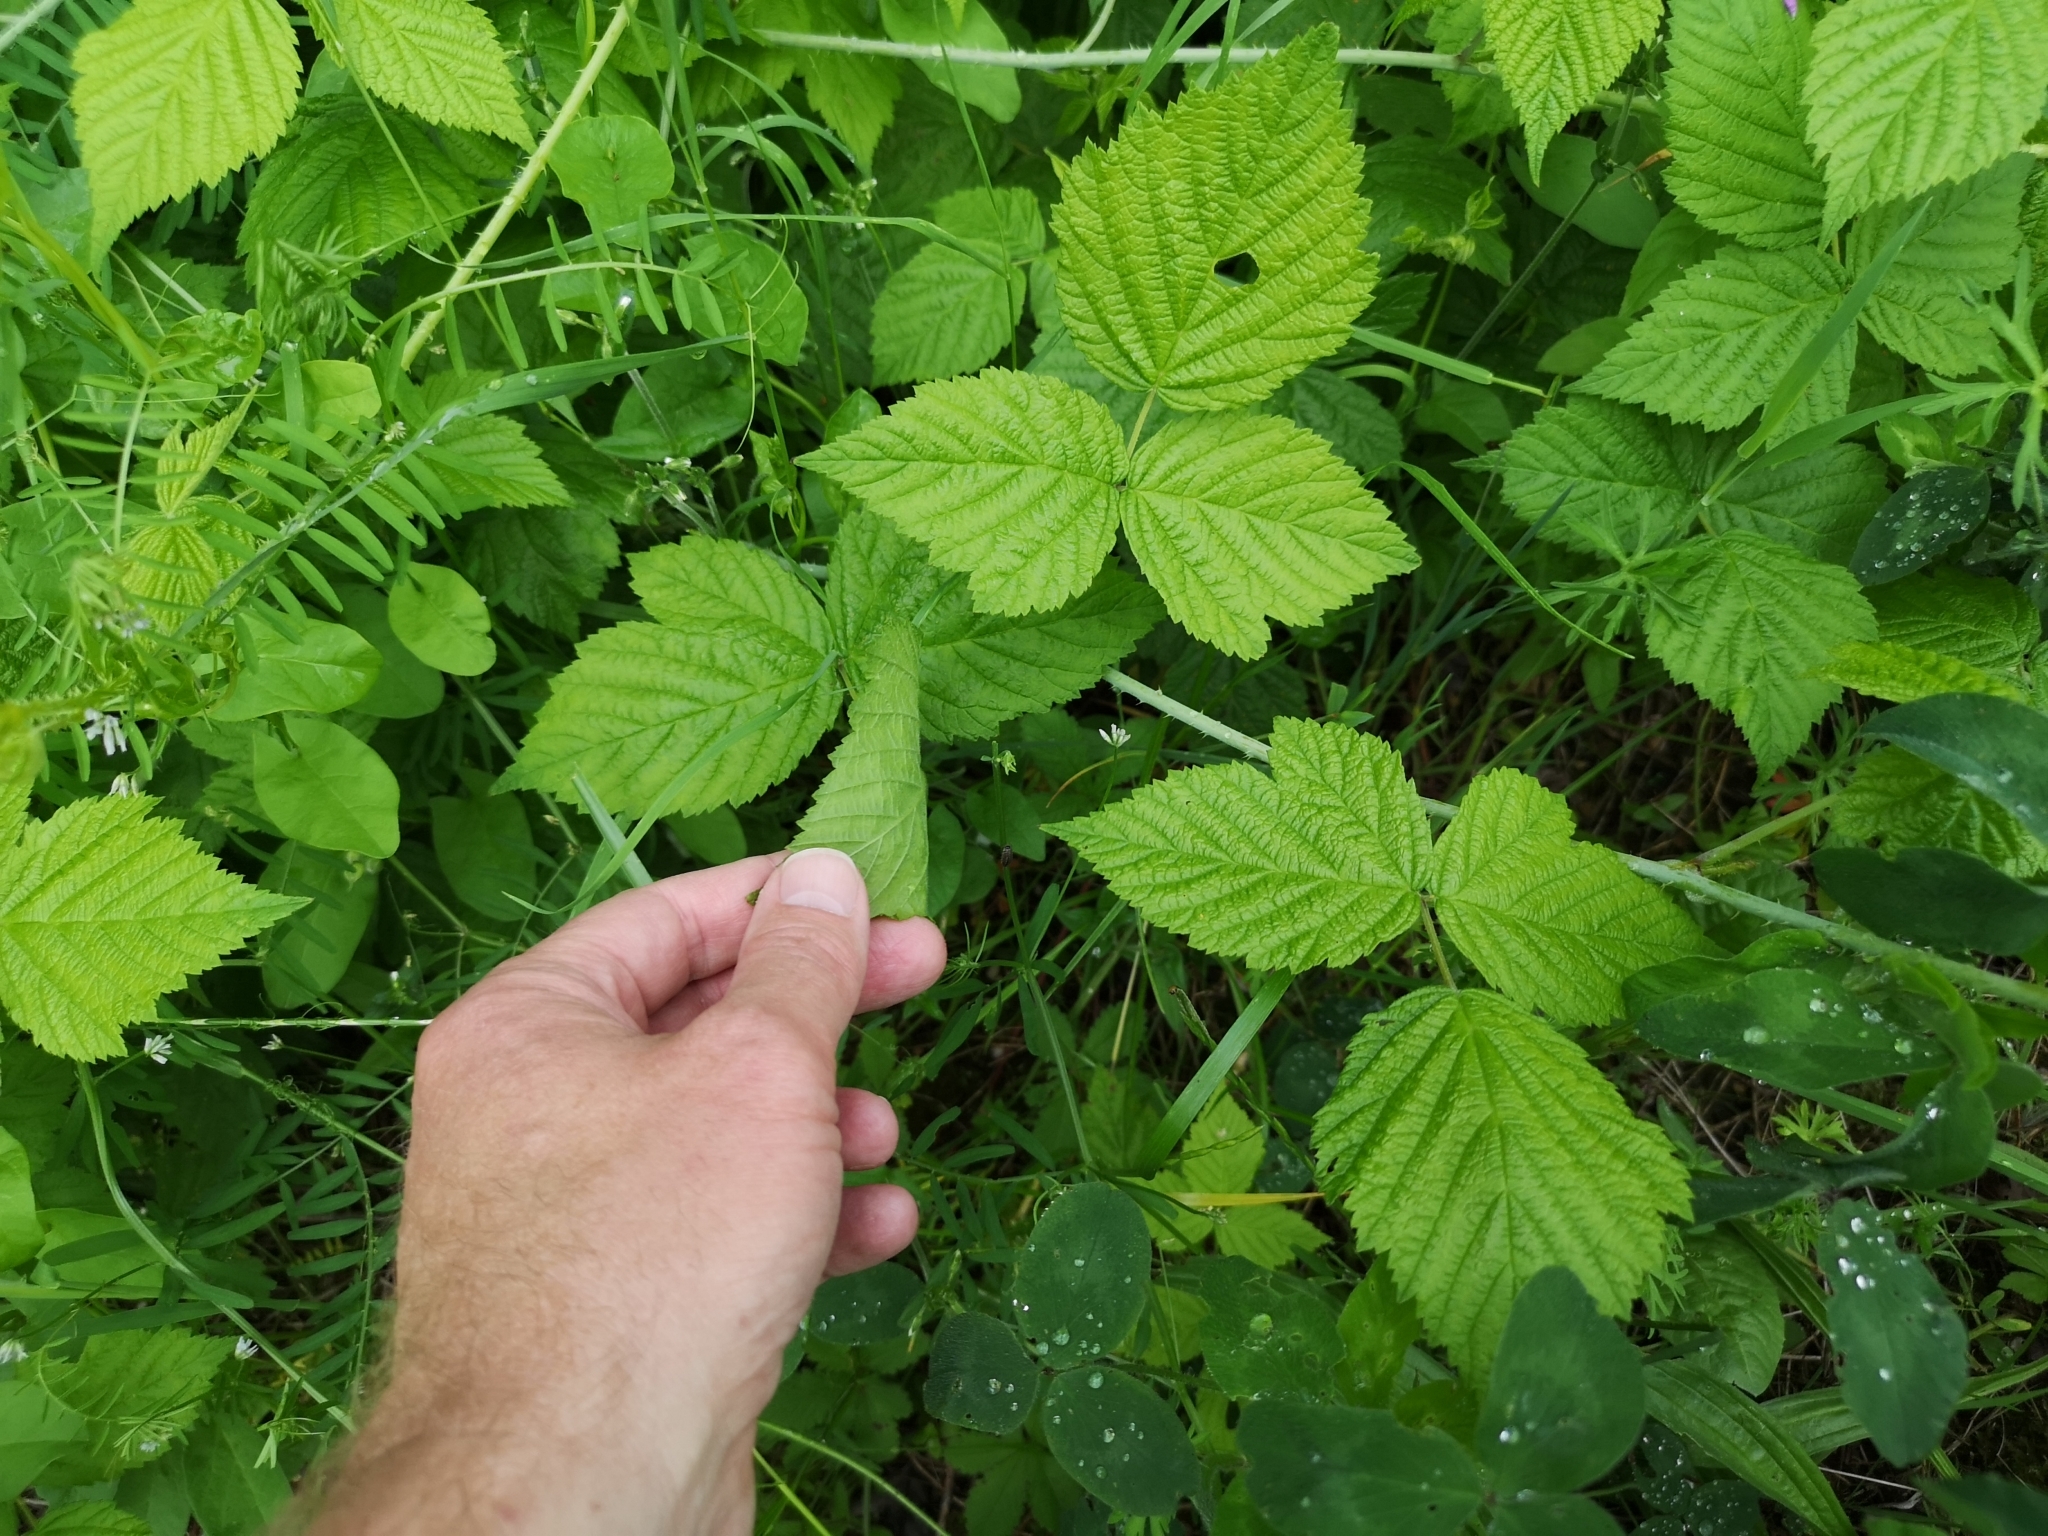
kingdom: Plantae
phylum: Tracheophyta
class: Magnoliopsida
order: Rosales
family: Rosaceae
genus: Rubus
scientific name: Rubus caesius
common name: Dewberry
